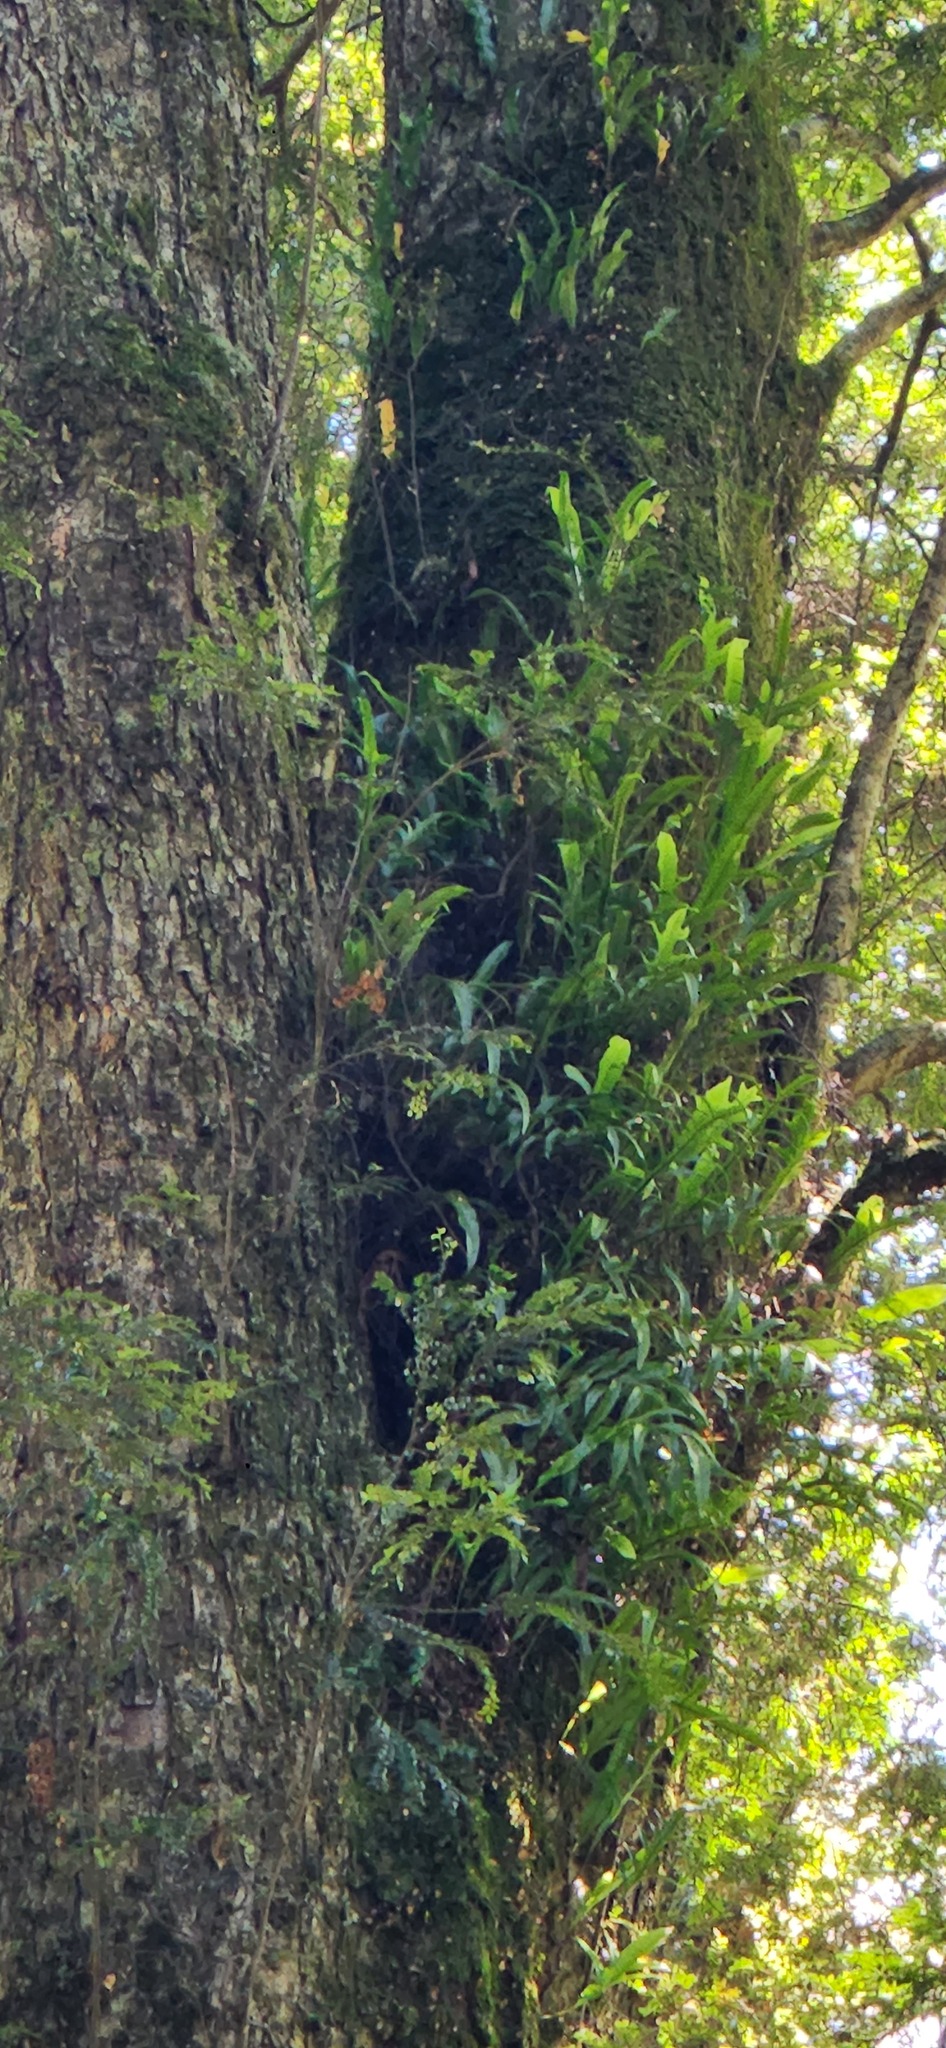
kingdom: Plantae
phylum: Tracheophyta
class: Polypodiopsida
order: Polypodiales
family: Polypodiaceae
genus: Lecanopteris
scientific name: Lecanopteris pustulata
